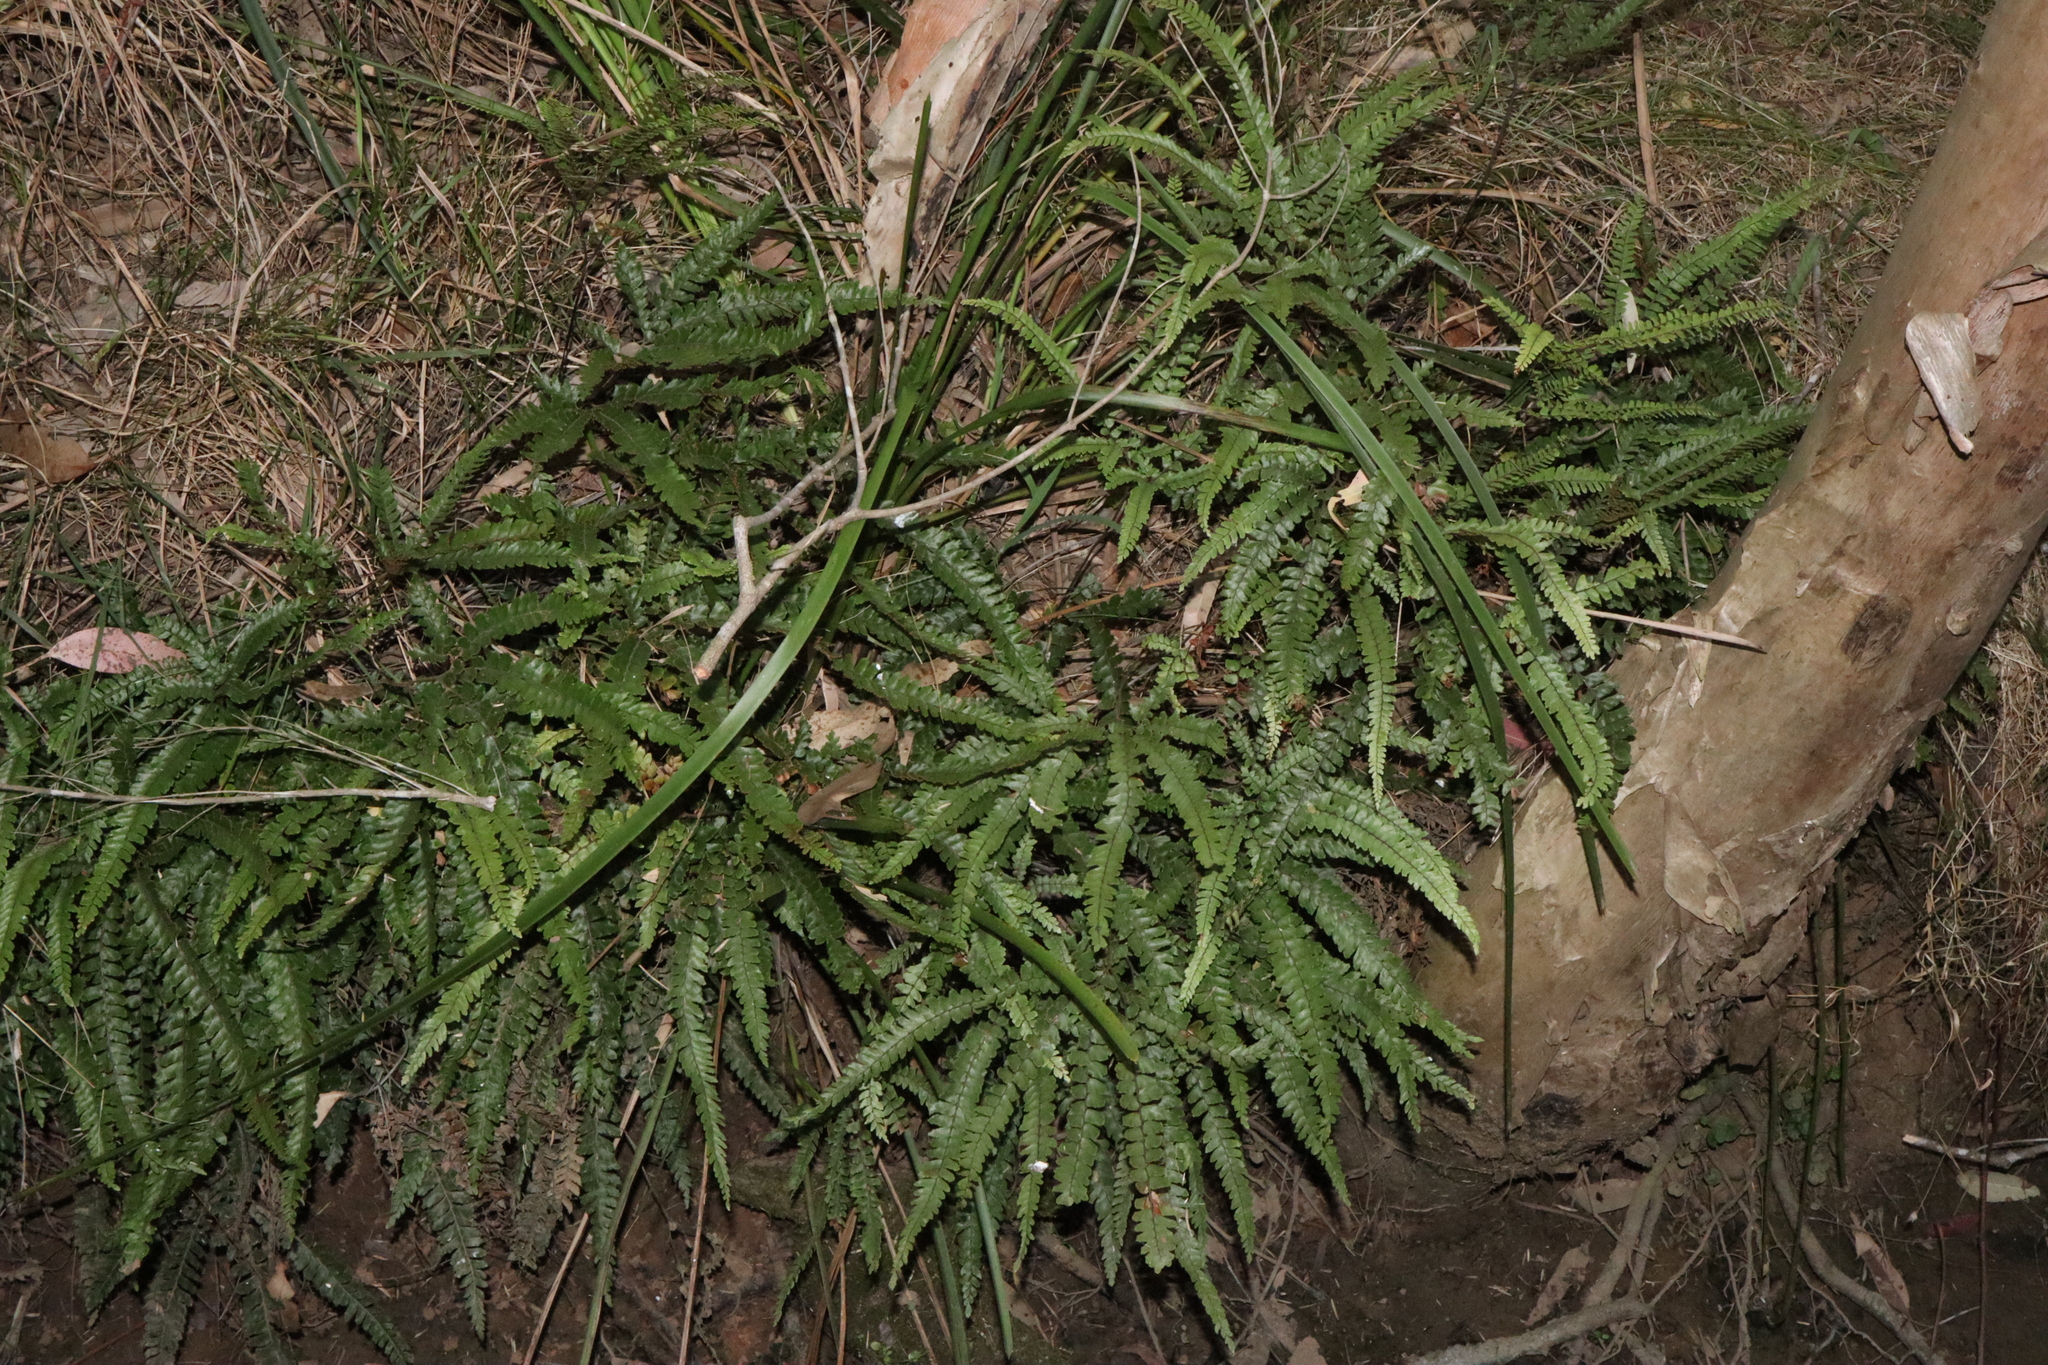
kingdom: Plantae
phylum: Tracheophyta
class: Polypodiopsida
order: Polypodiales
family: Pteridaceae
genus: Adiantum
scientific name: Adiantum hispidulum
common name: Rough maidenhair
